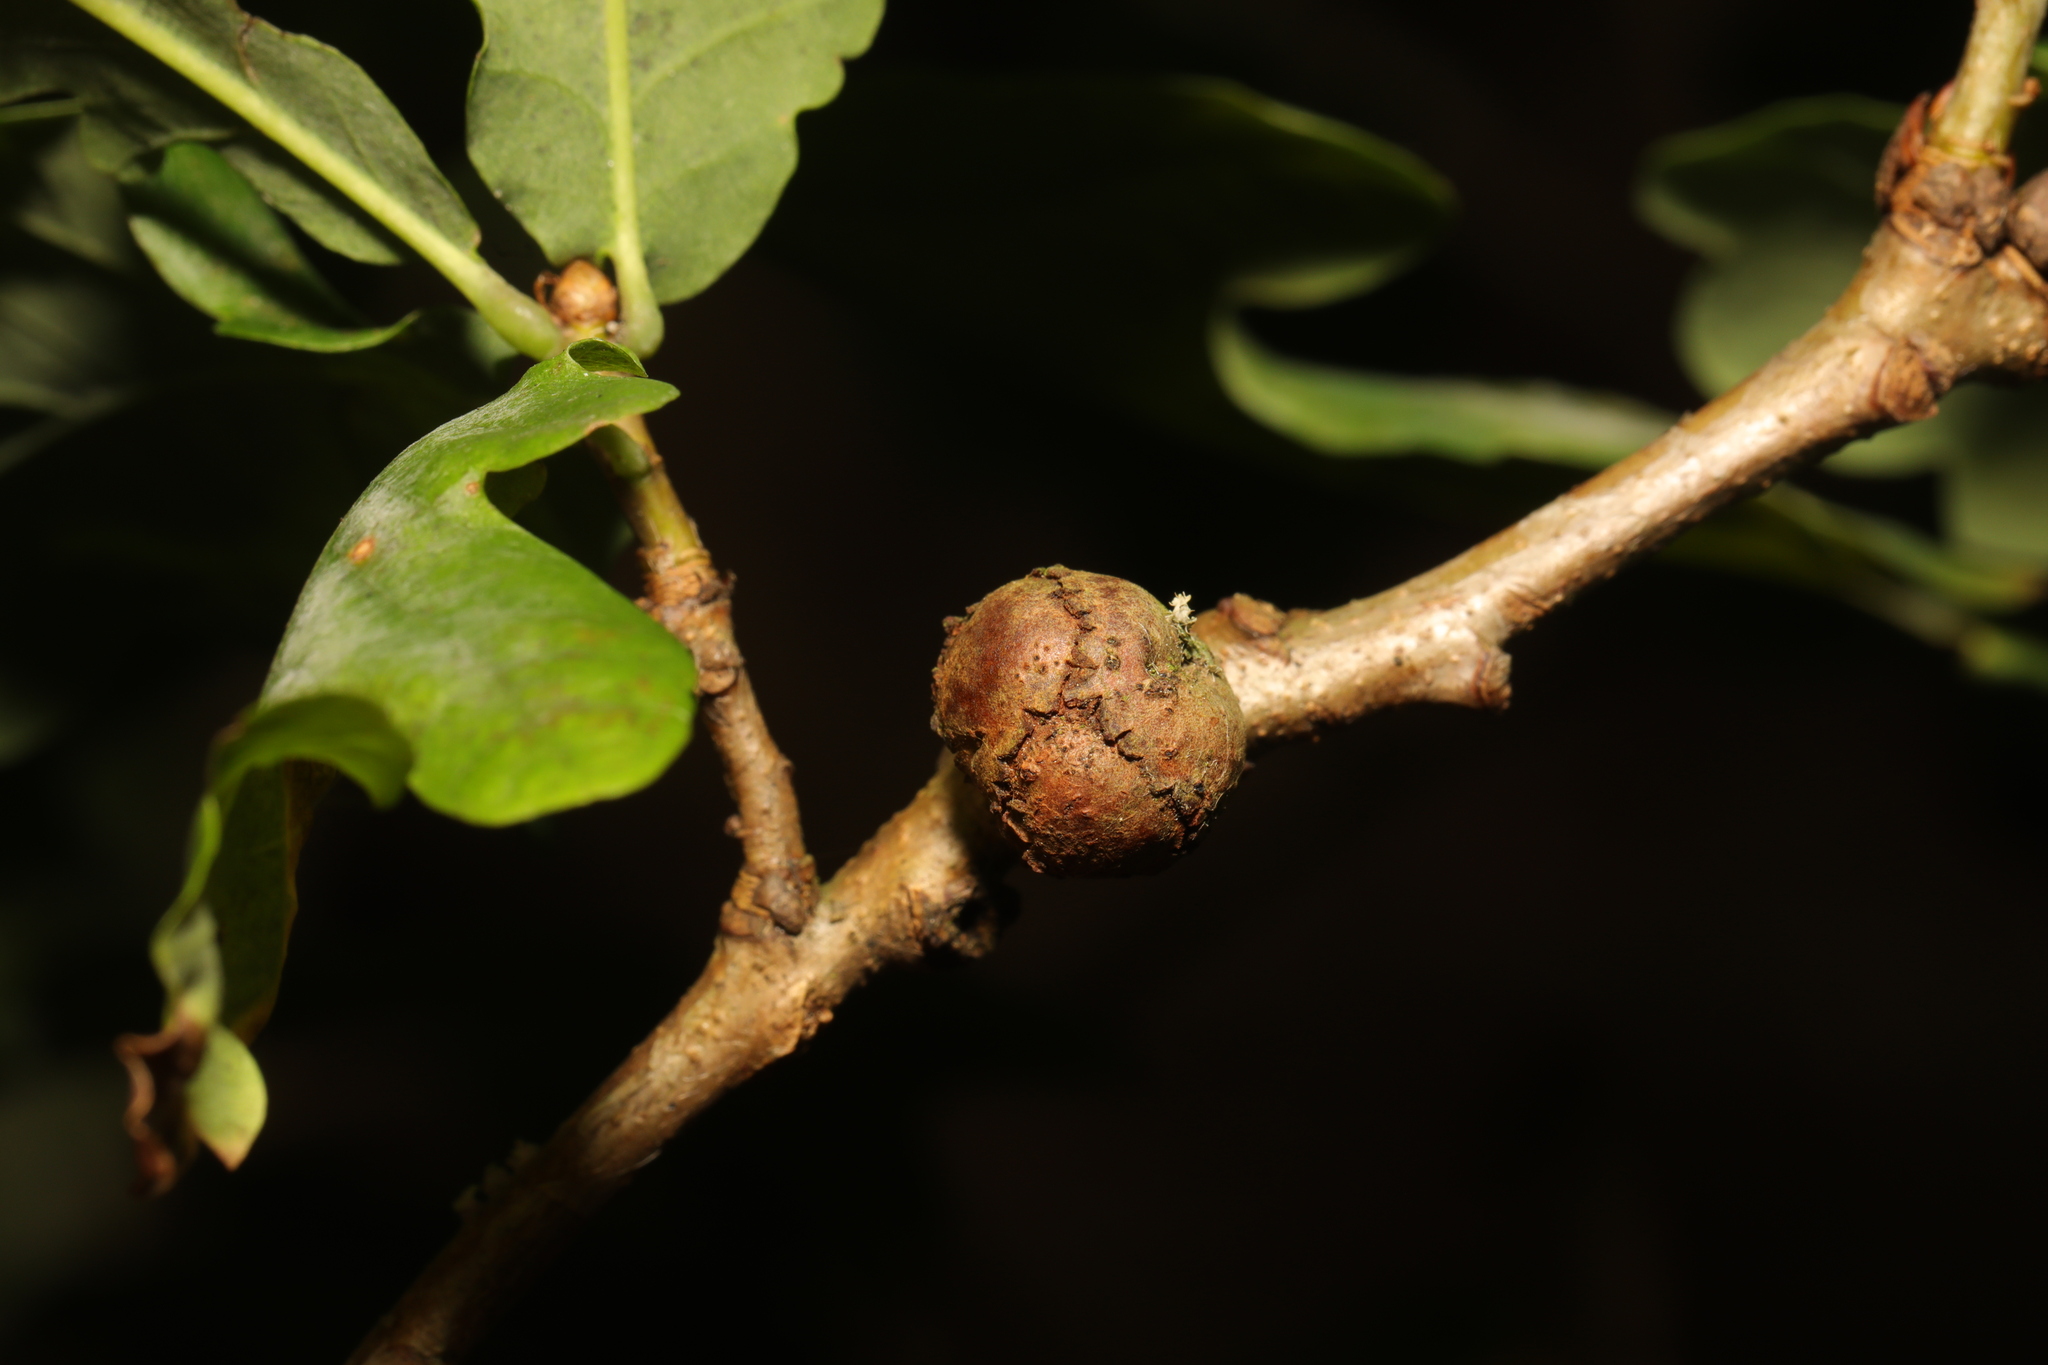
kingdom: Animalia
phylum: Arthropoda
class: Insecta
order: Hymenoptera
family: Cynipidae
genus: Andricus
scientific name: Andricus lignicolus
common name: Cola-nut gall
